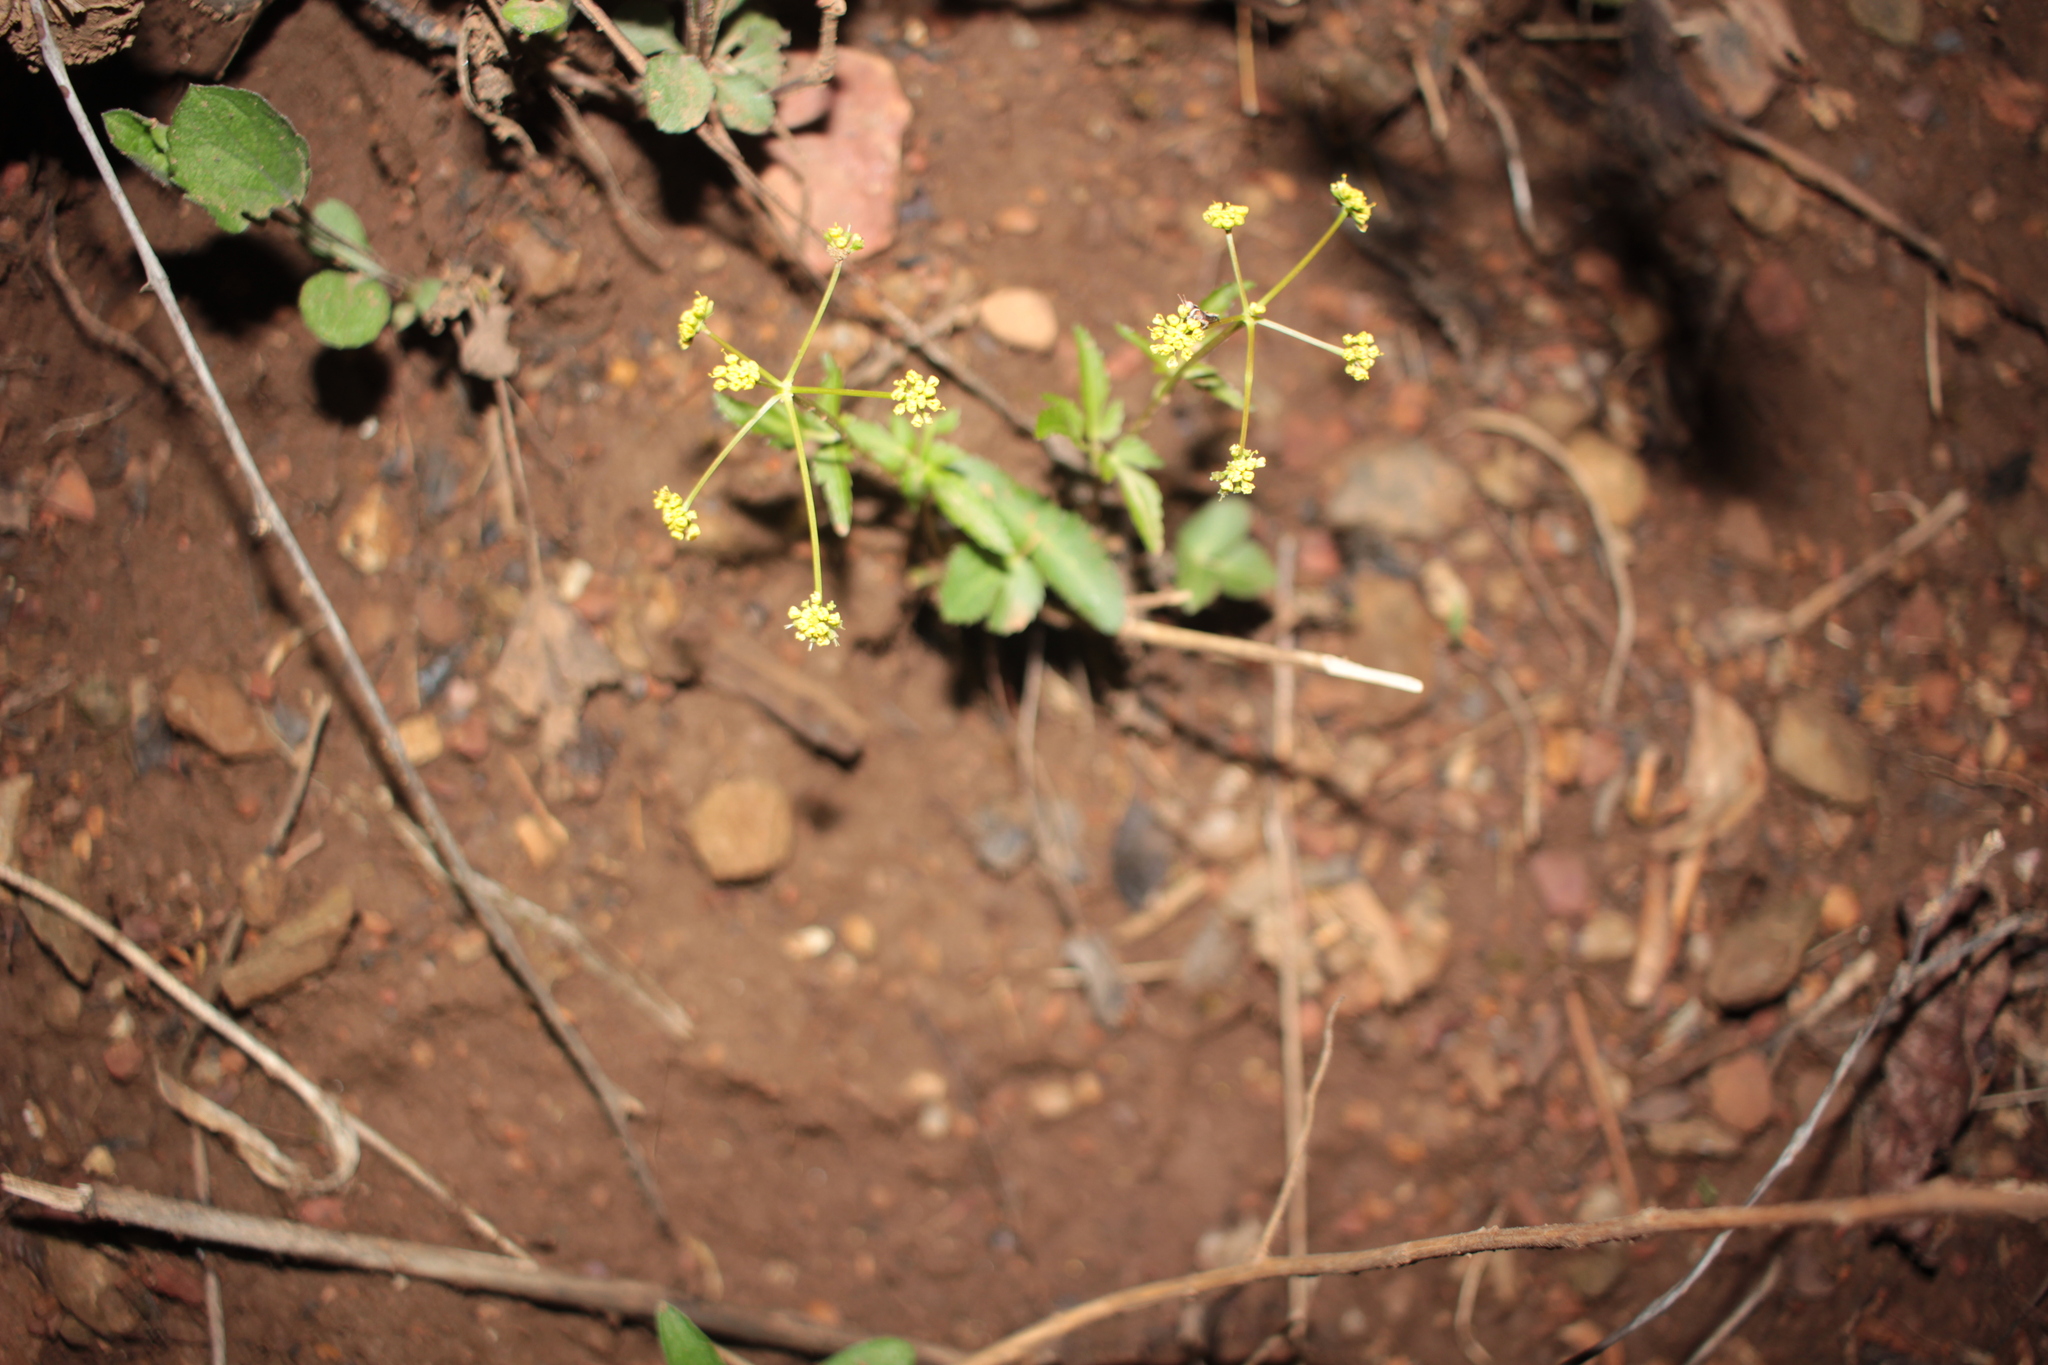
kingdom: Plantae
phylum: Tracheophyta
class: Magnoliopsida
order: Apiales
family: Apiaceae
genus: Zizia
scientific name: Zizia trifoliata
